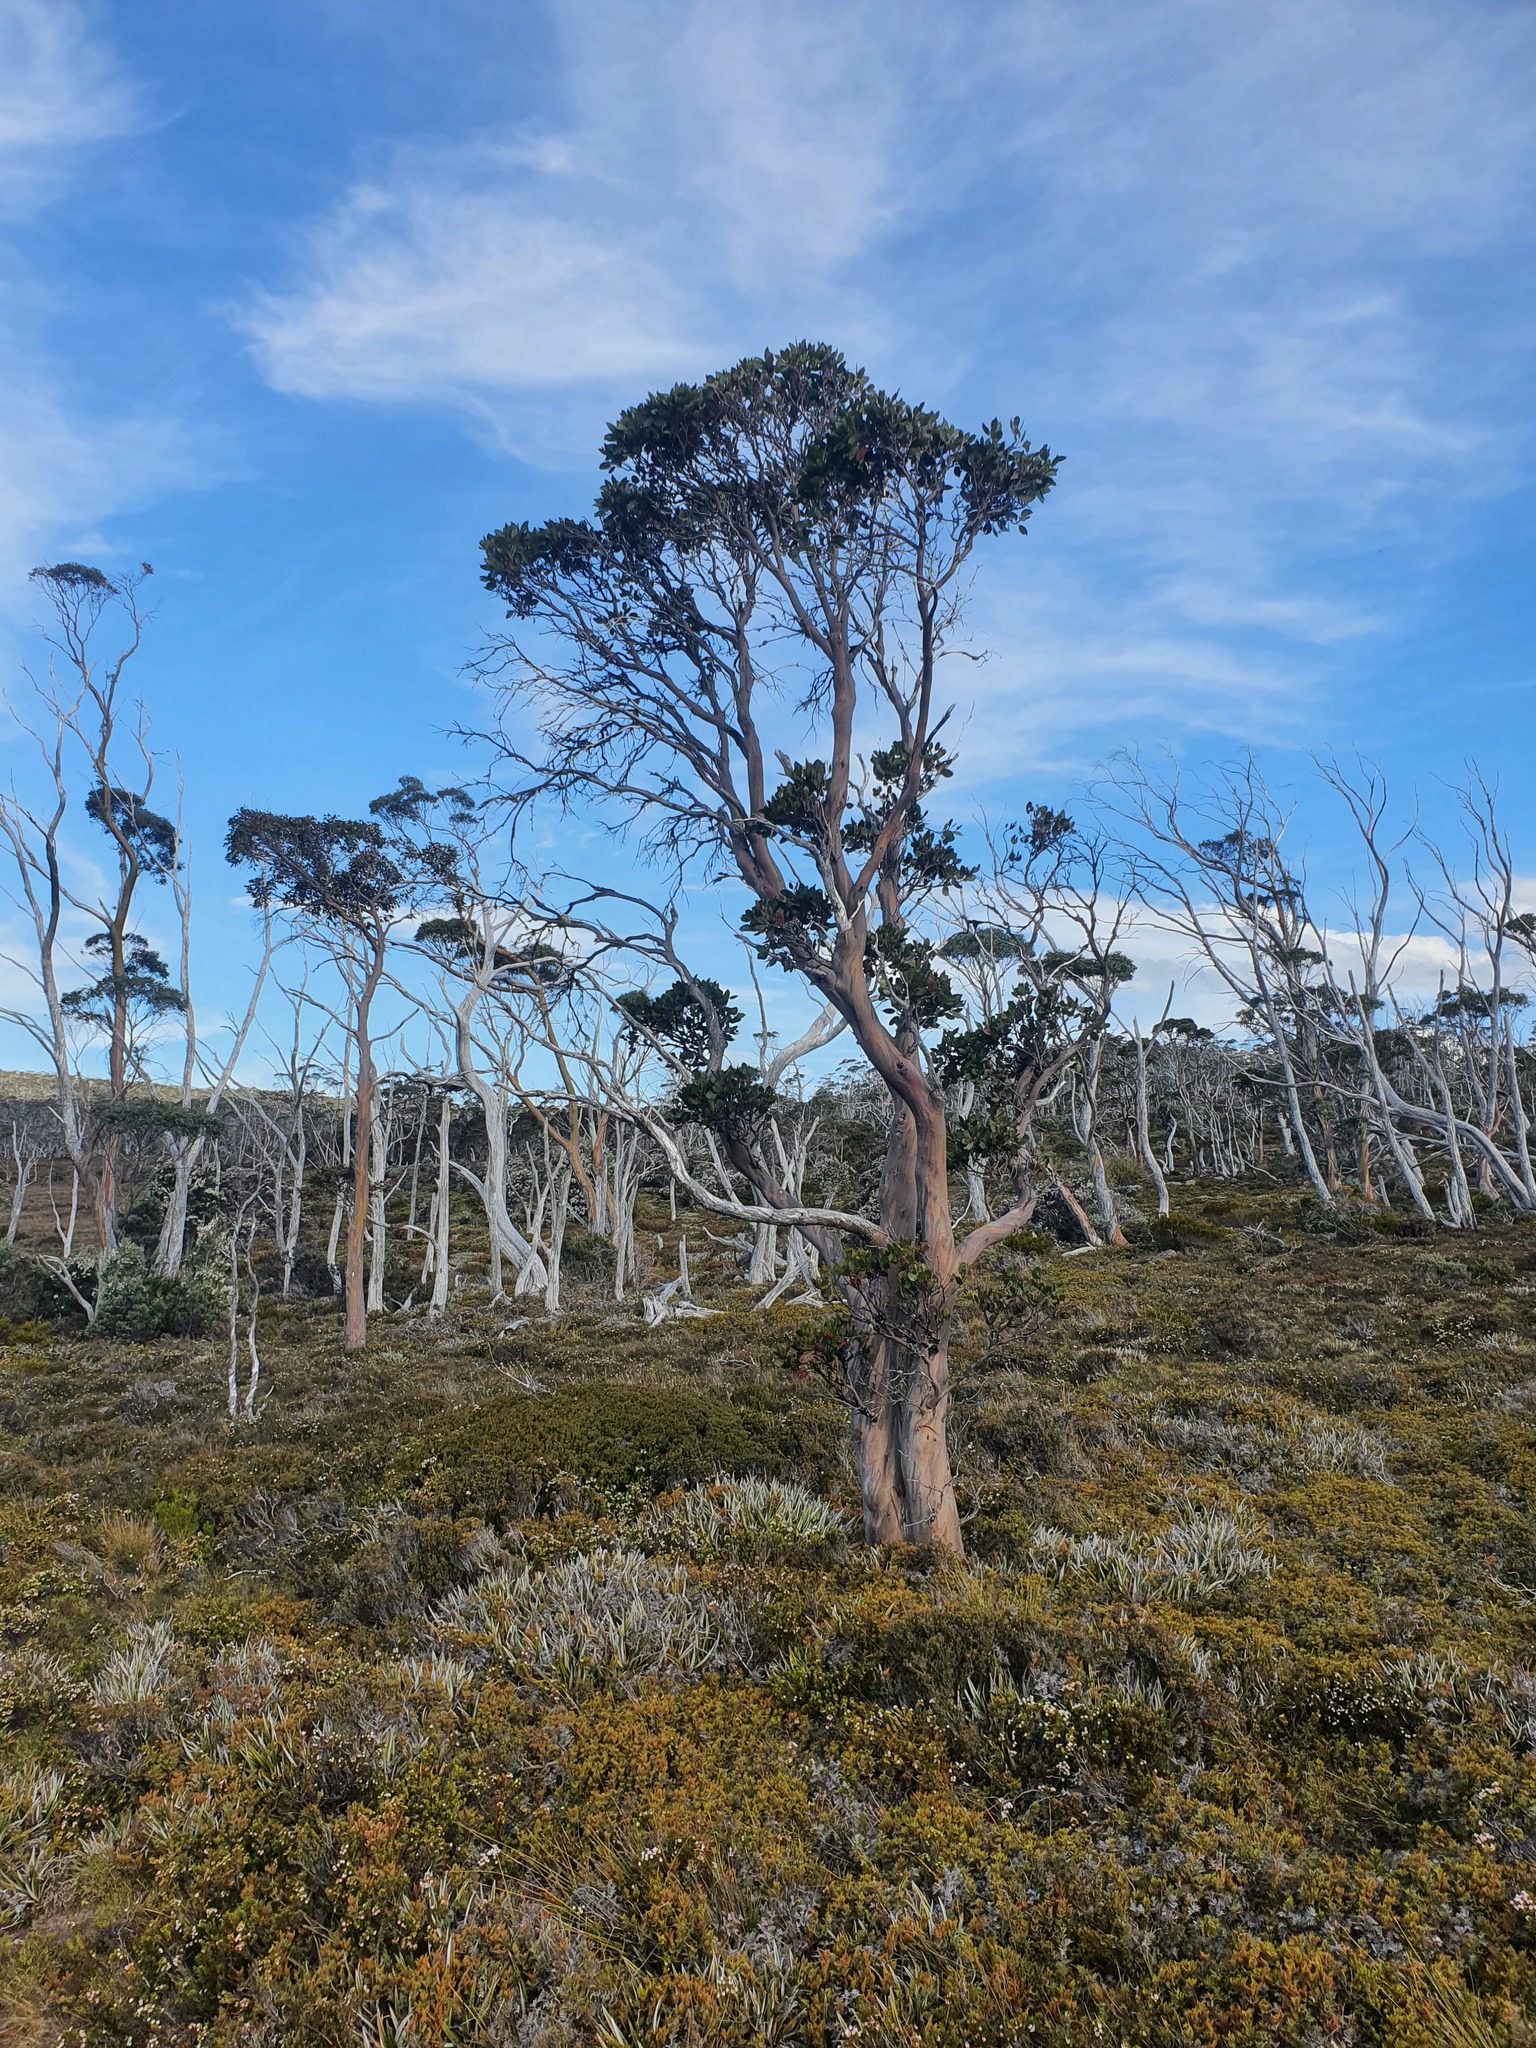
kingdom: Plantae
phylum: Tracheophyta
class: Magnoliopsida
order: Myrtales
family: Myrtaceae
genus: Eucalyptus
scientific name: Eucalyptus subcrenulata
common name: Alpine yellow gum
